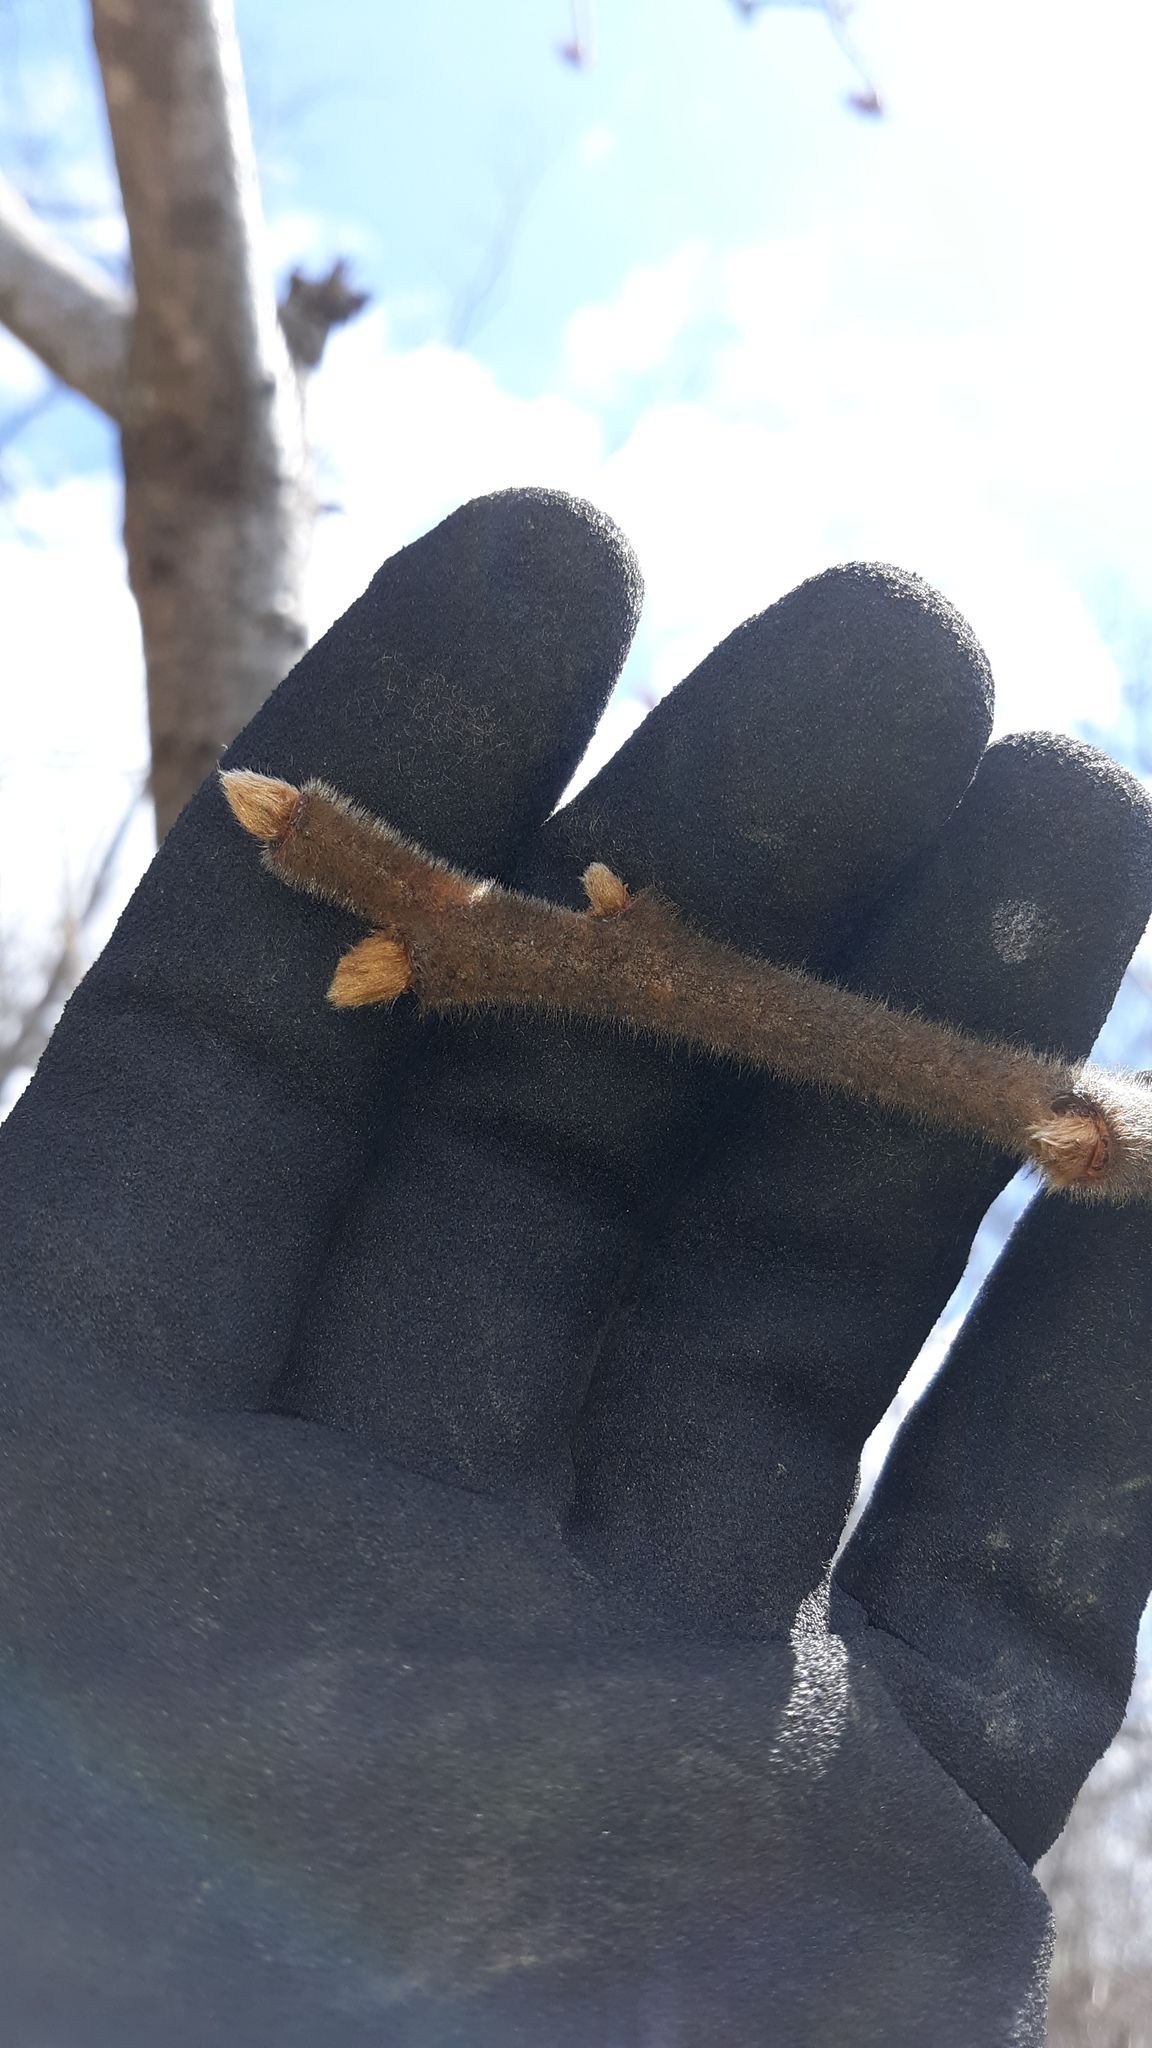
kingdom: Plantae
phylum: Tracheophyta
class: Magnoliopsida
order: Sapindales
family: Anacardiaceae
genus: Rhus
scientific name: Rhus typhina
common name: Staghorn sumac
